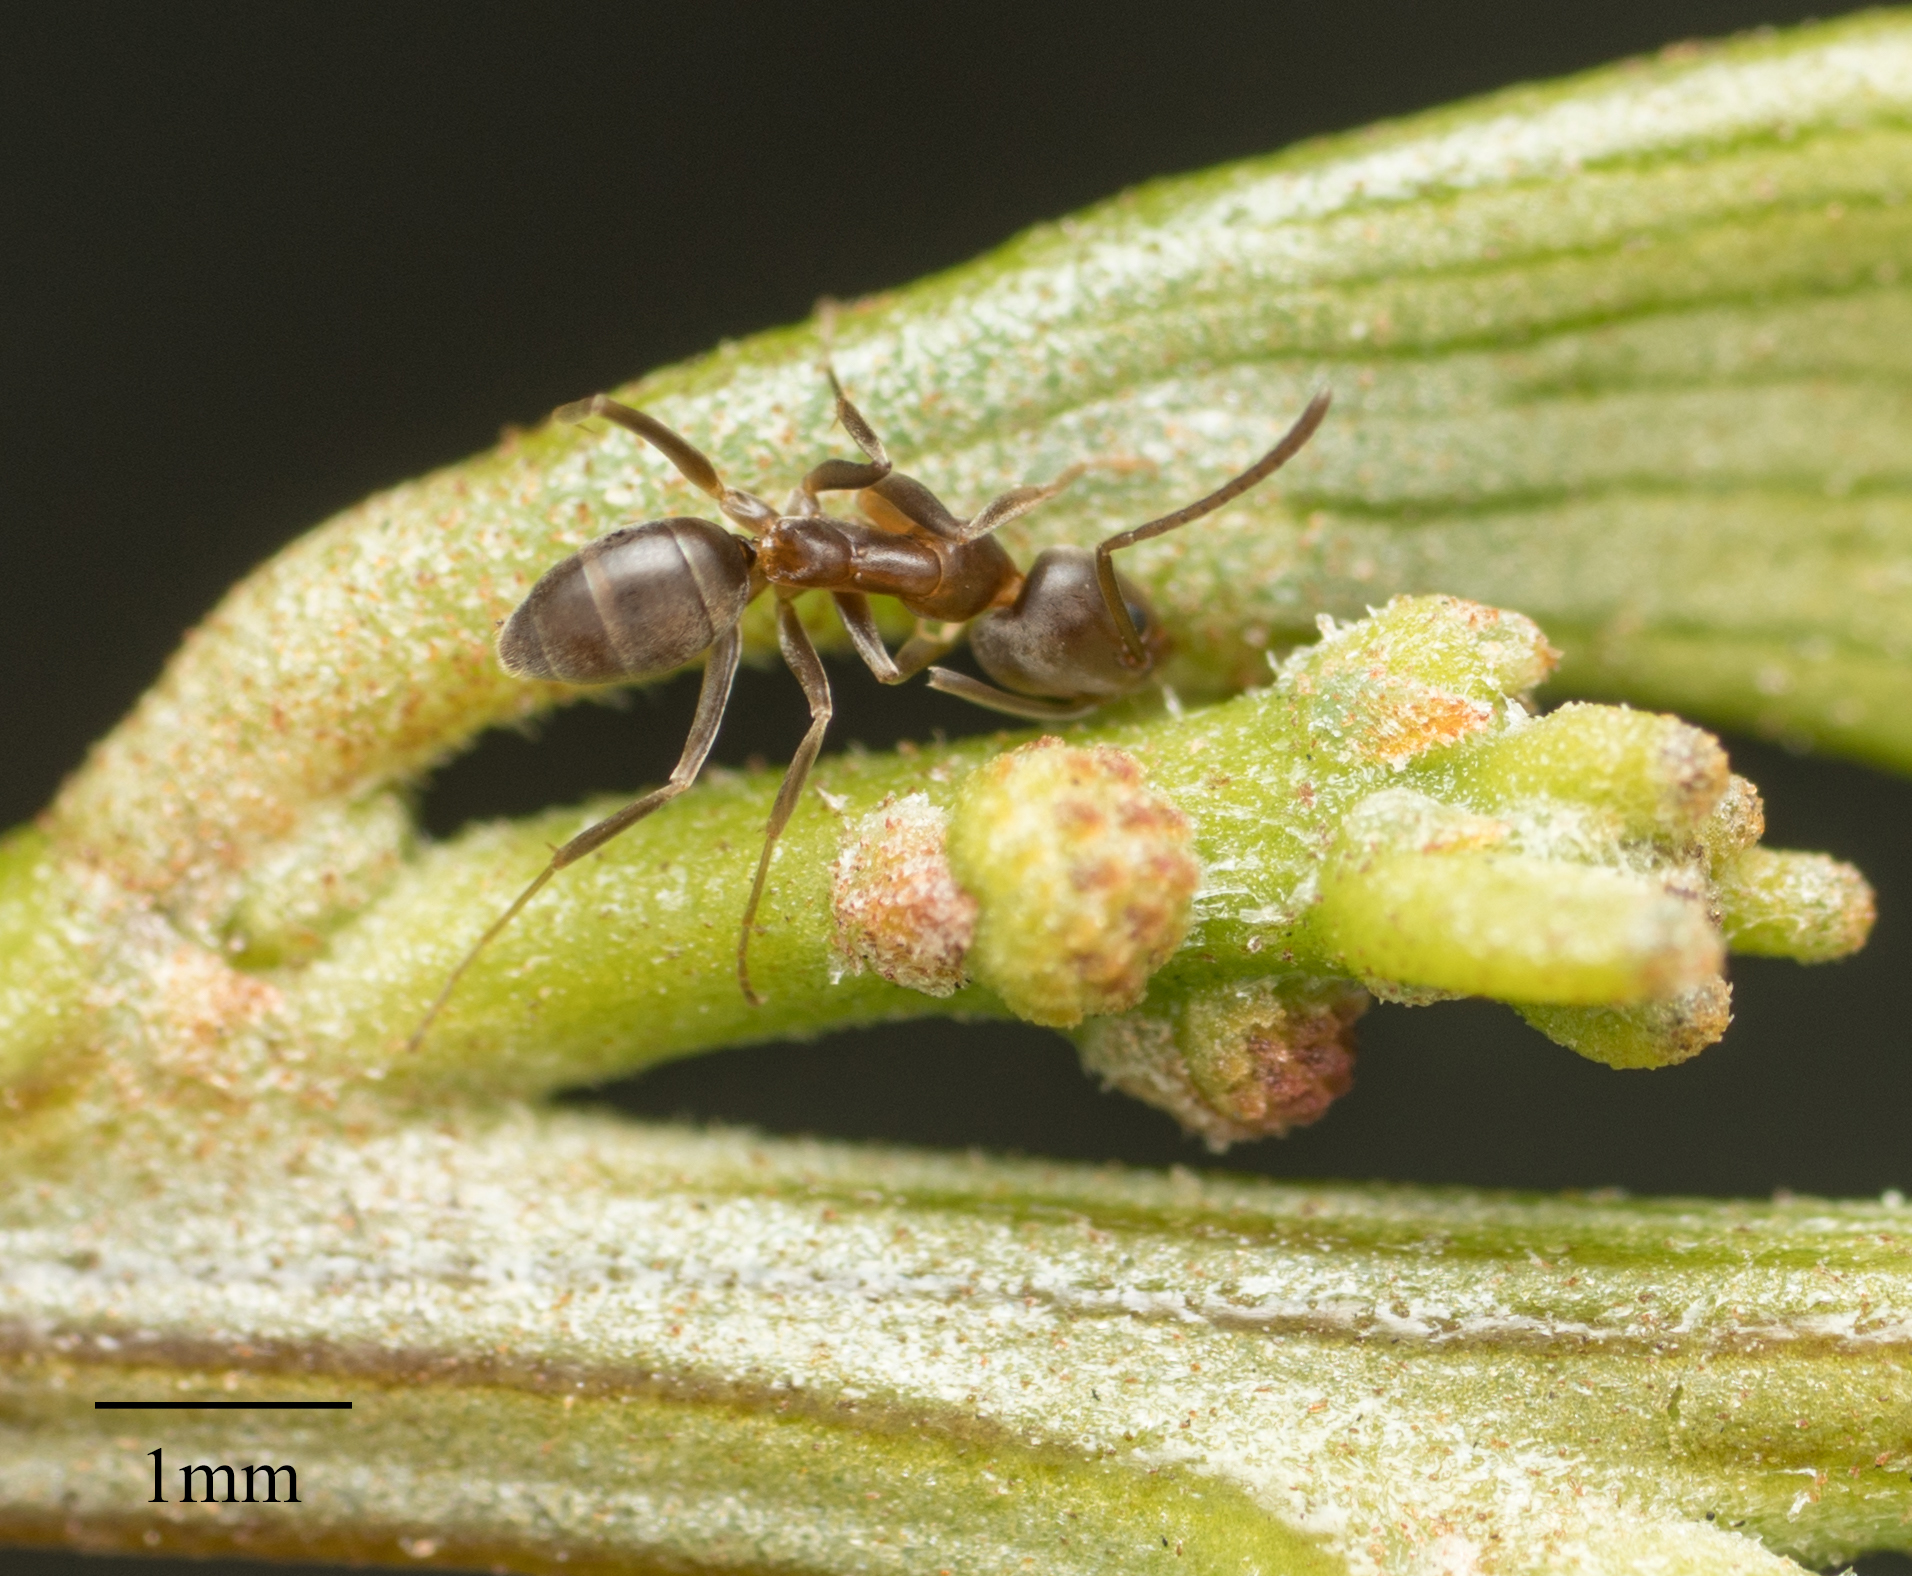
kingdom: Animalia
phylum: Arthropoda
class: Insecta
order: Hymenoptera
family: Formicidae
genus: Linepithema
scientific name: Linepithema humile
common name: Argentine ant
